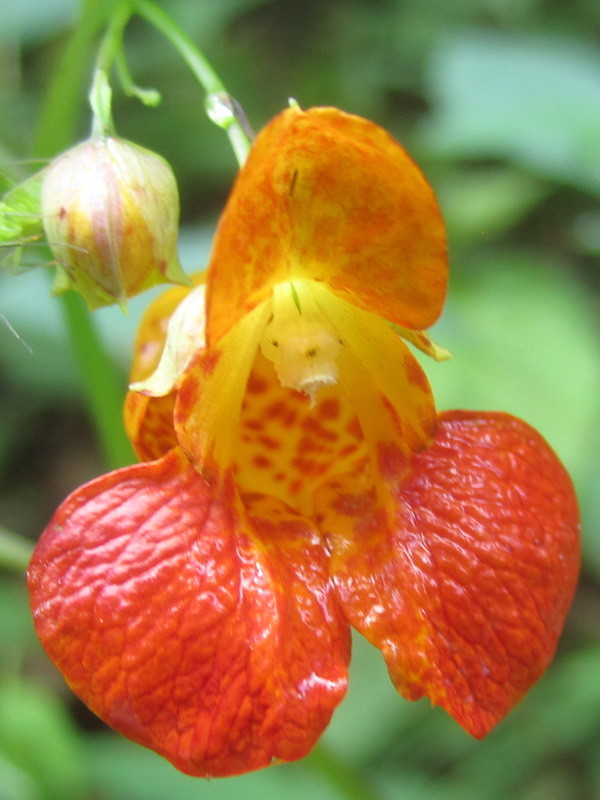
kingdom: Plantae
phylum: Tracheophyta
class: Magnoliopsida
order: Ericales
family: Balsaminaceae
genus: Impatiens
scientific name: Impatiens capensis
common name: Orange balsam
